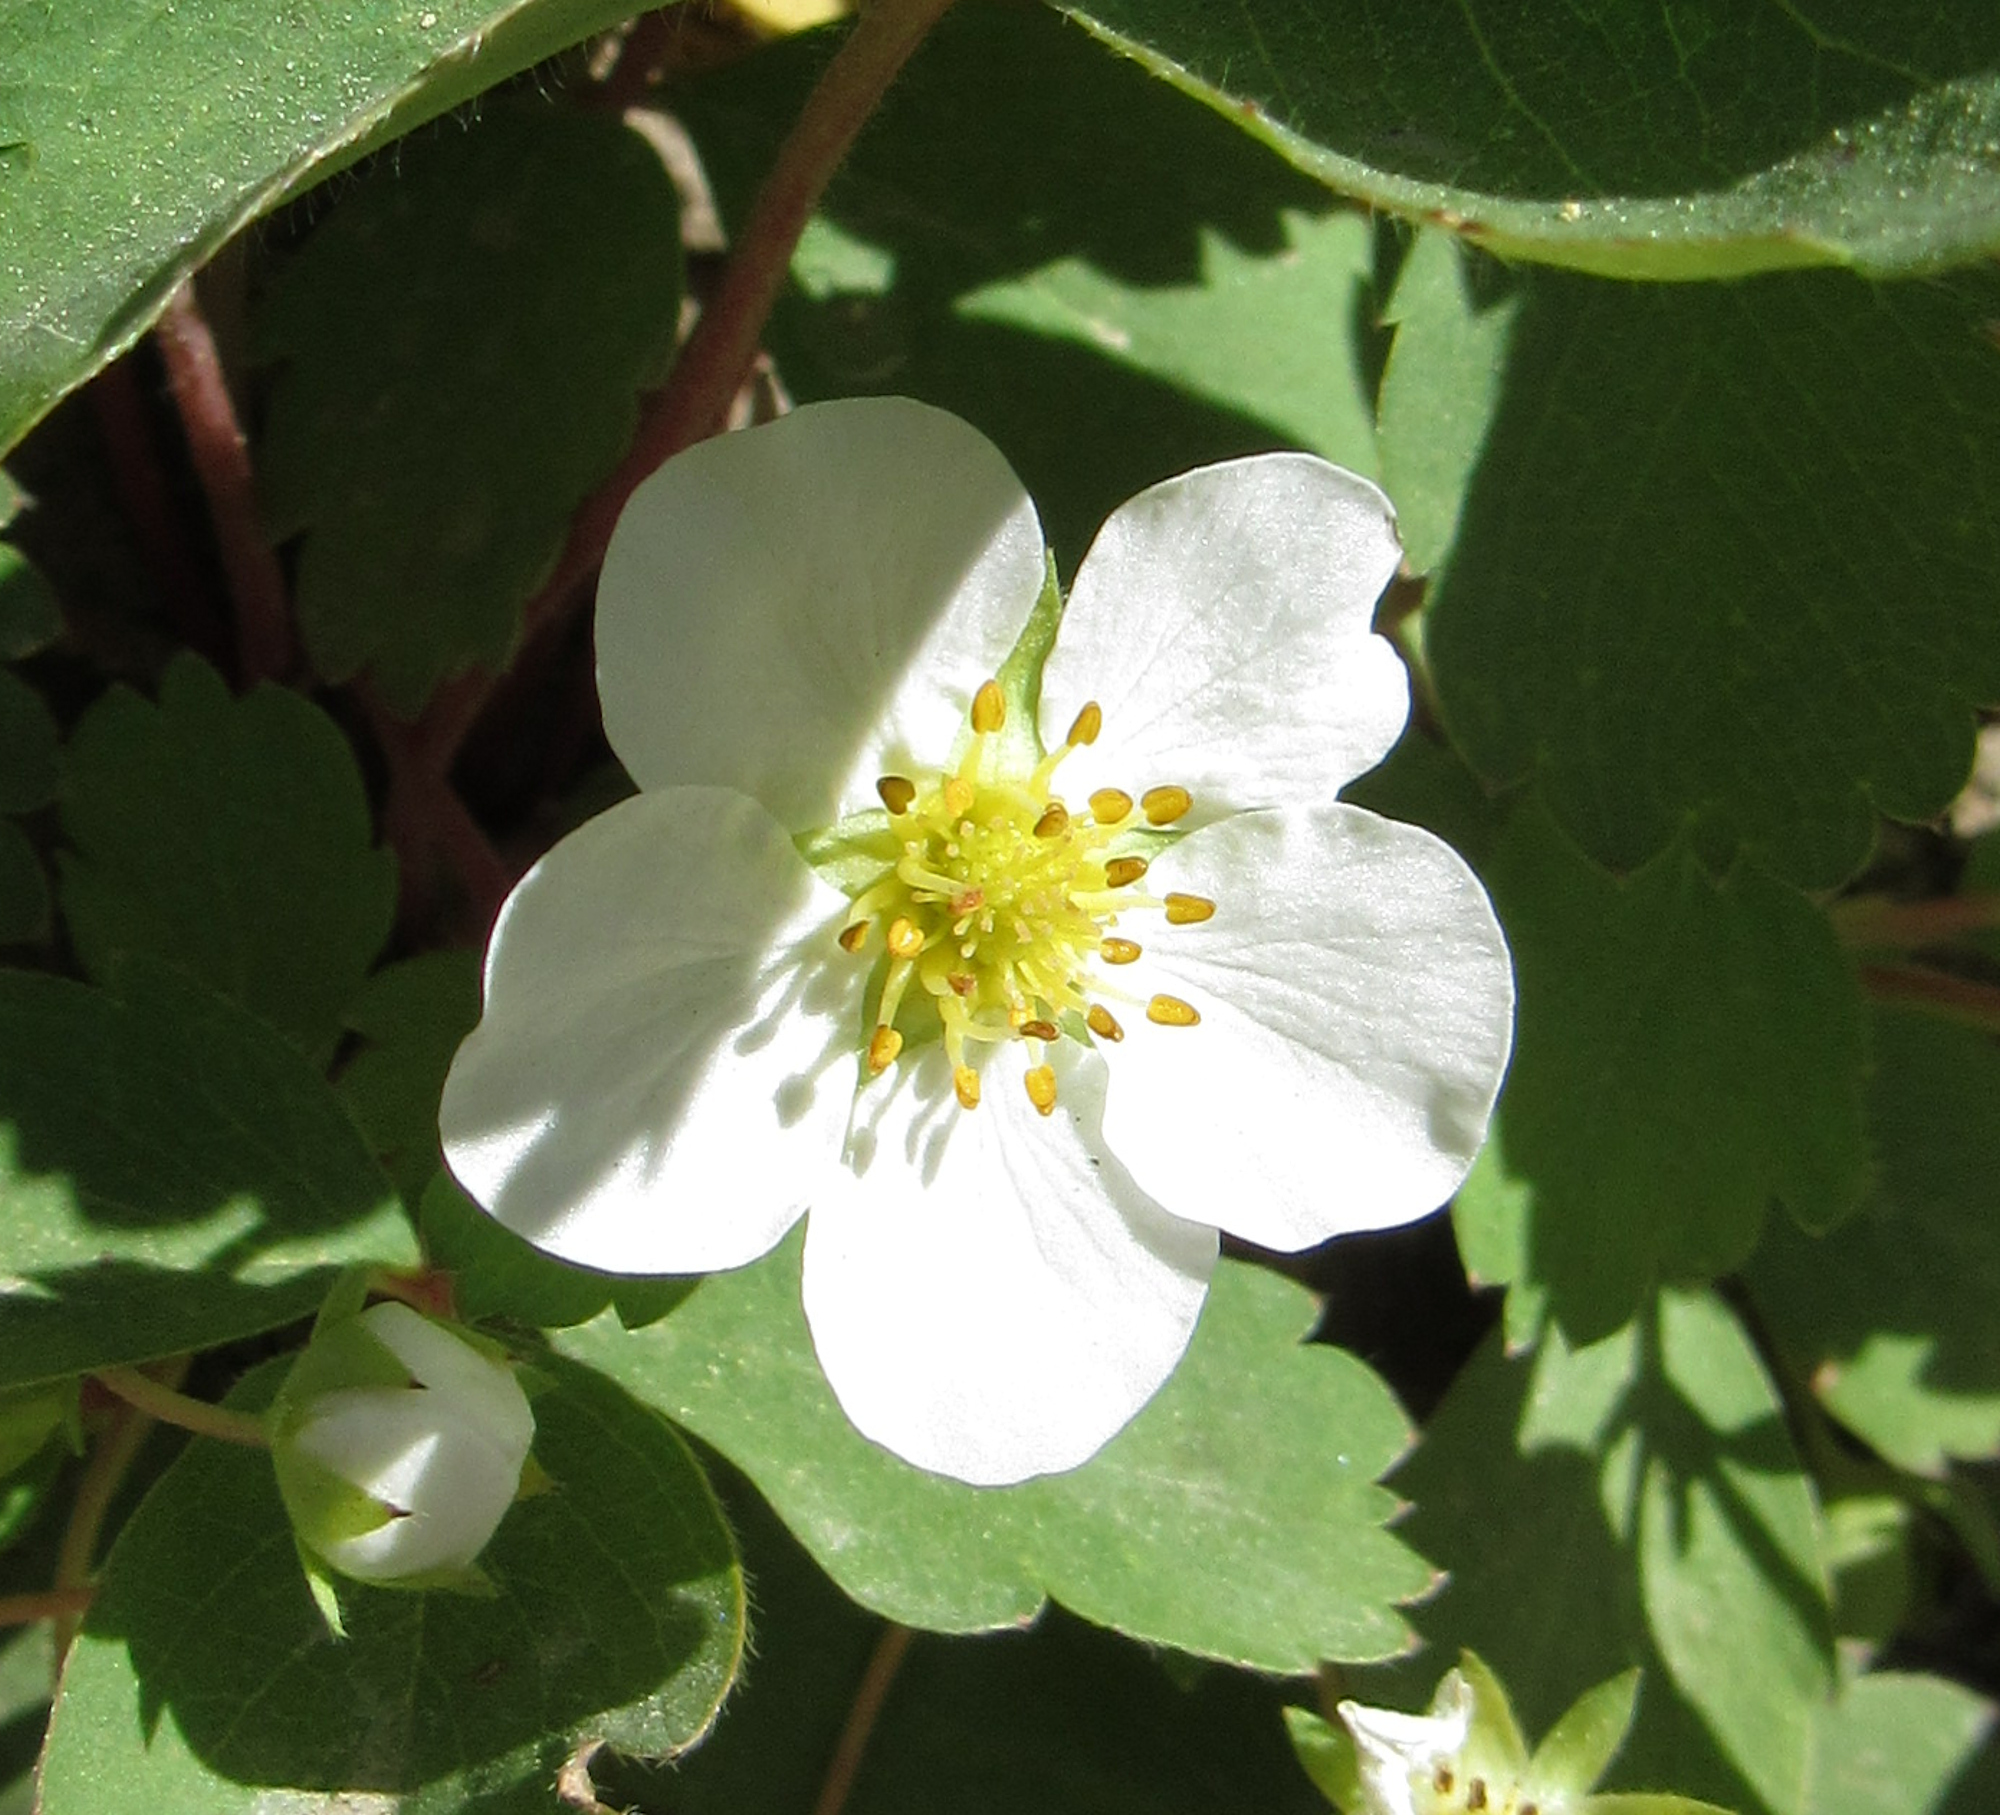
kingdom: Plantae
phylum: Tracheophyta
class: Magnoliopsida
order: Rosales
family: Rosaceae
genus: Fragaria
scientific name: Fragaria virginiana
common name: Thickleaved wild strawberry
